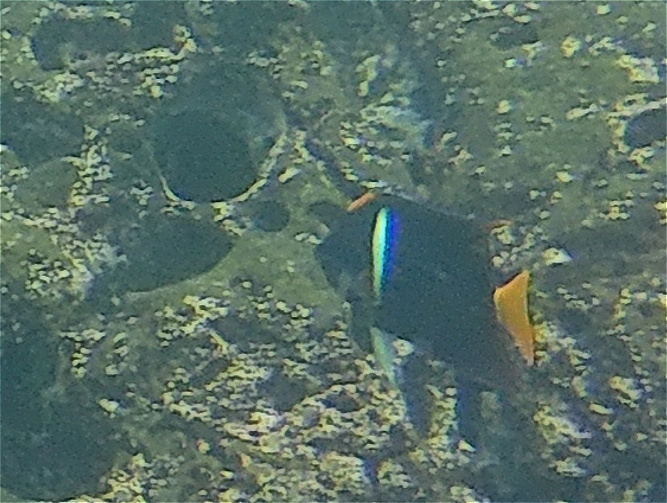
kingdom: Animalia
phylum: Chordata
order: Perciformes
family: Pomacanthidae
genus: Holacanthus
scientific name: Holacanthus passer
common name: King angelfish
